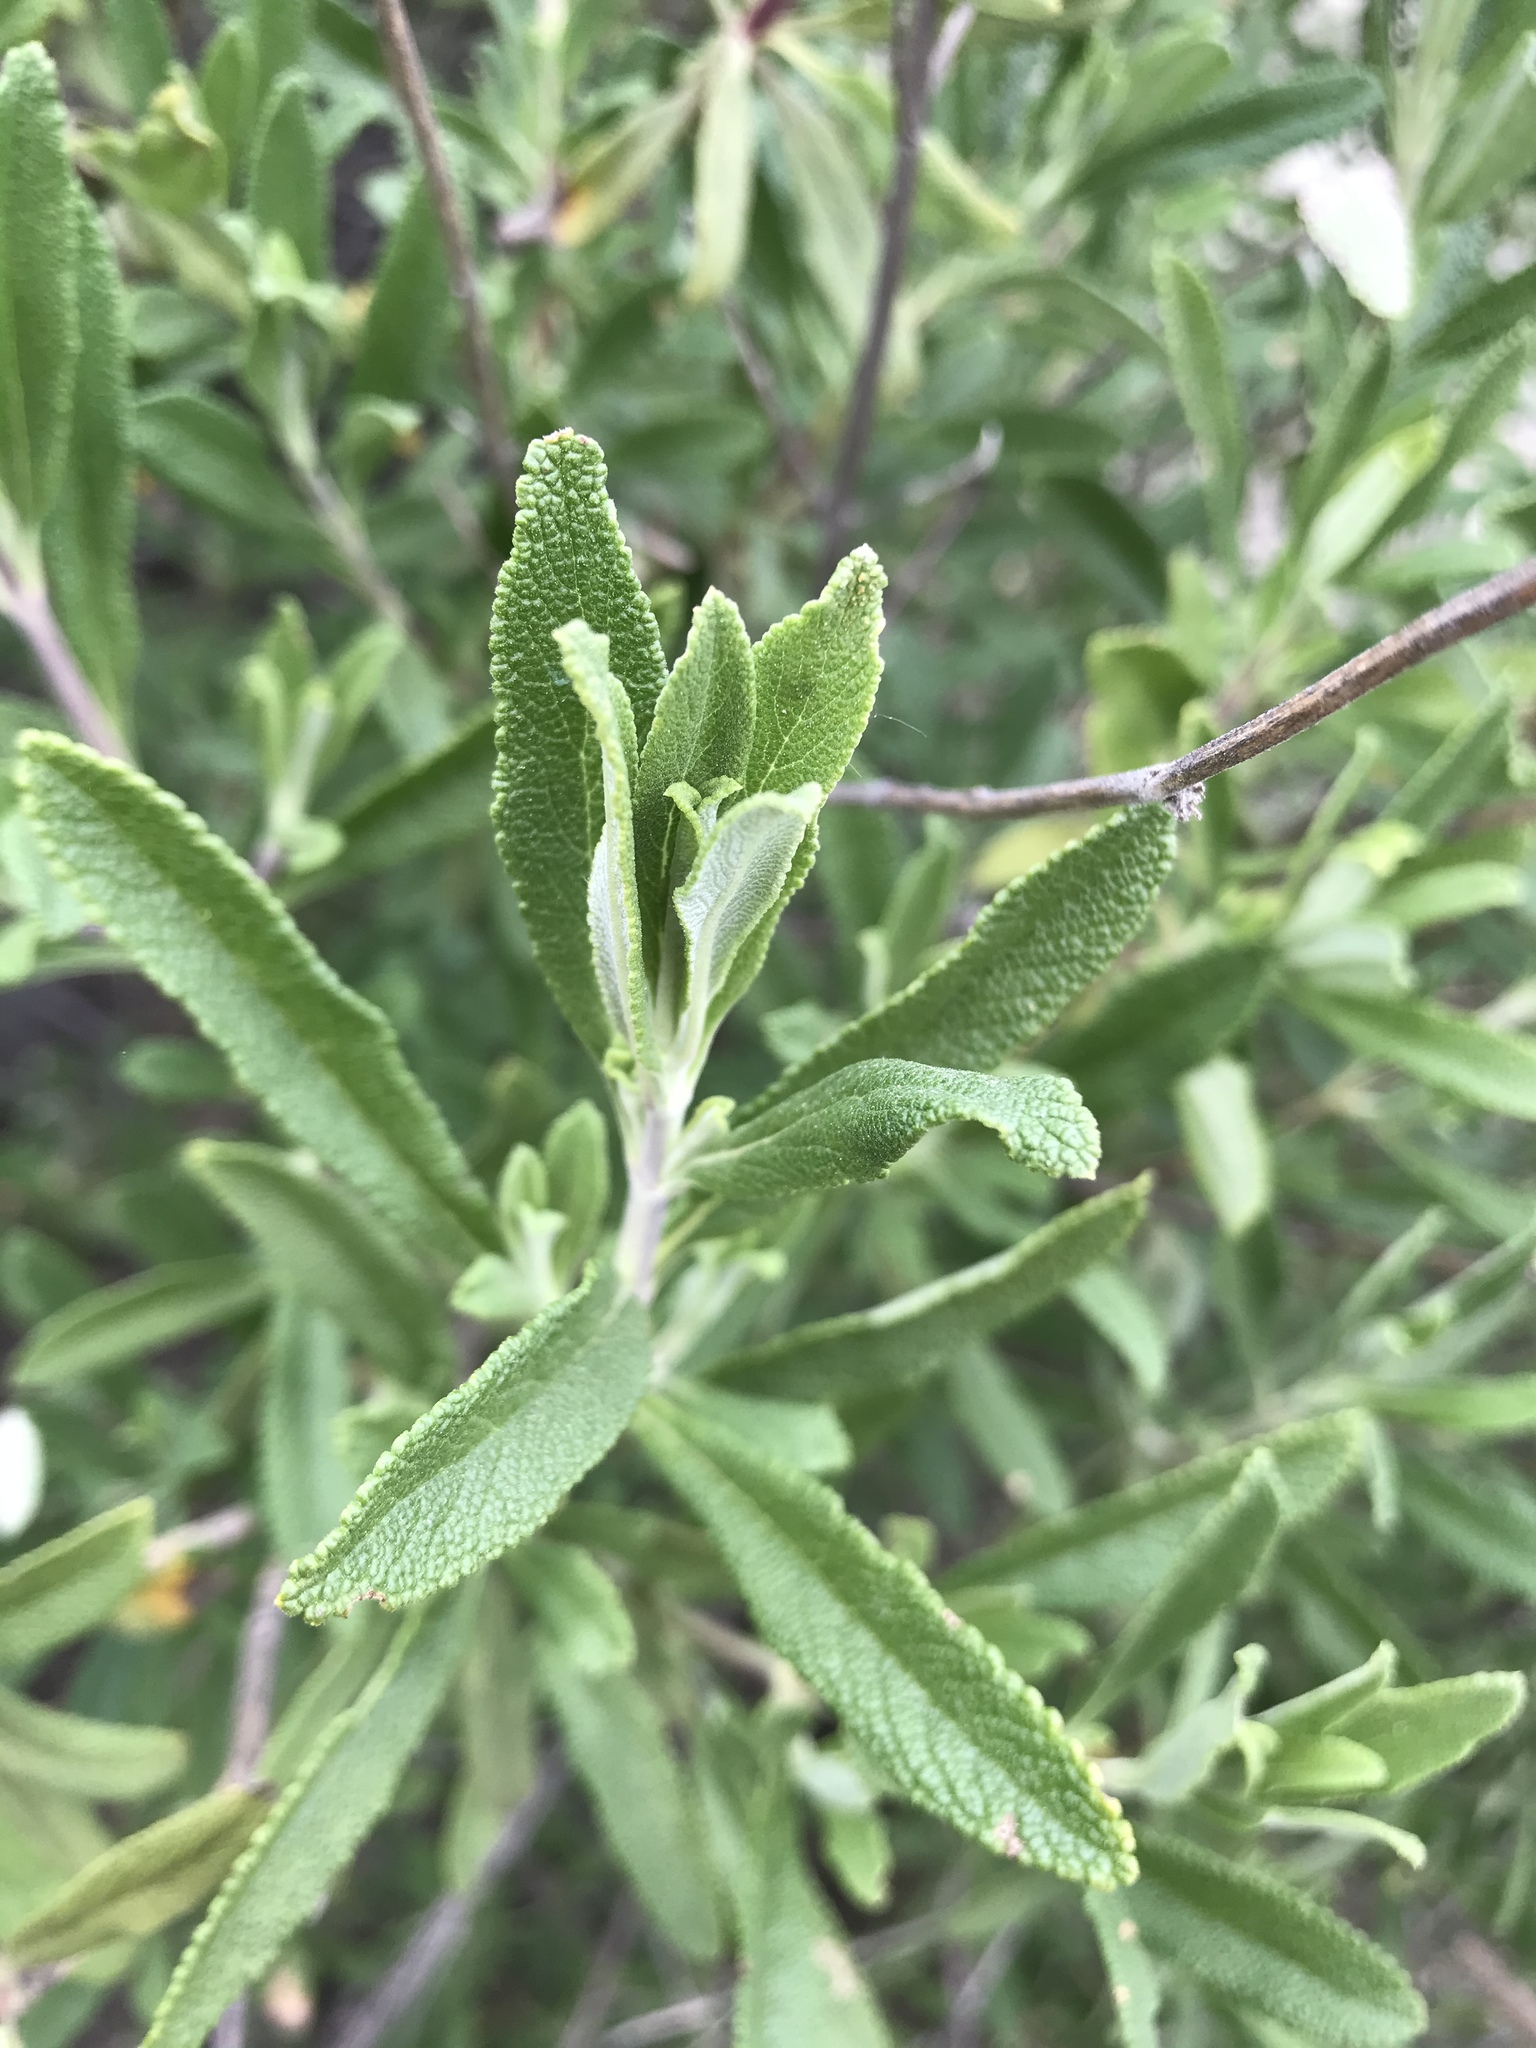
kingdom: Plantae
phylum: Tracheophyta
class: Magnoliopsida
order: Lamiales
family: Lamiaceae
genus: Salvia
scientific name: Salvia mellifera
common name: Black sage
